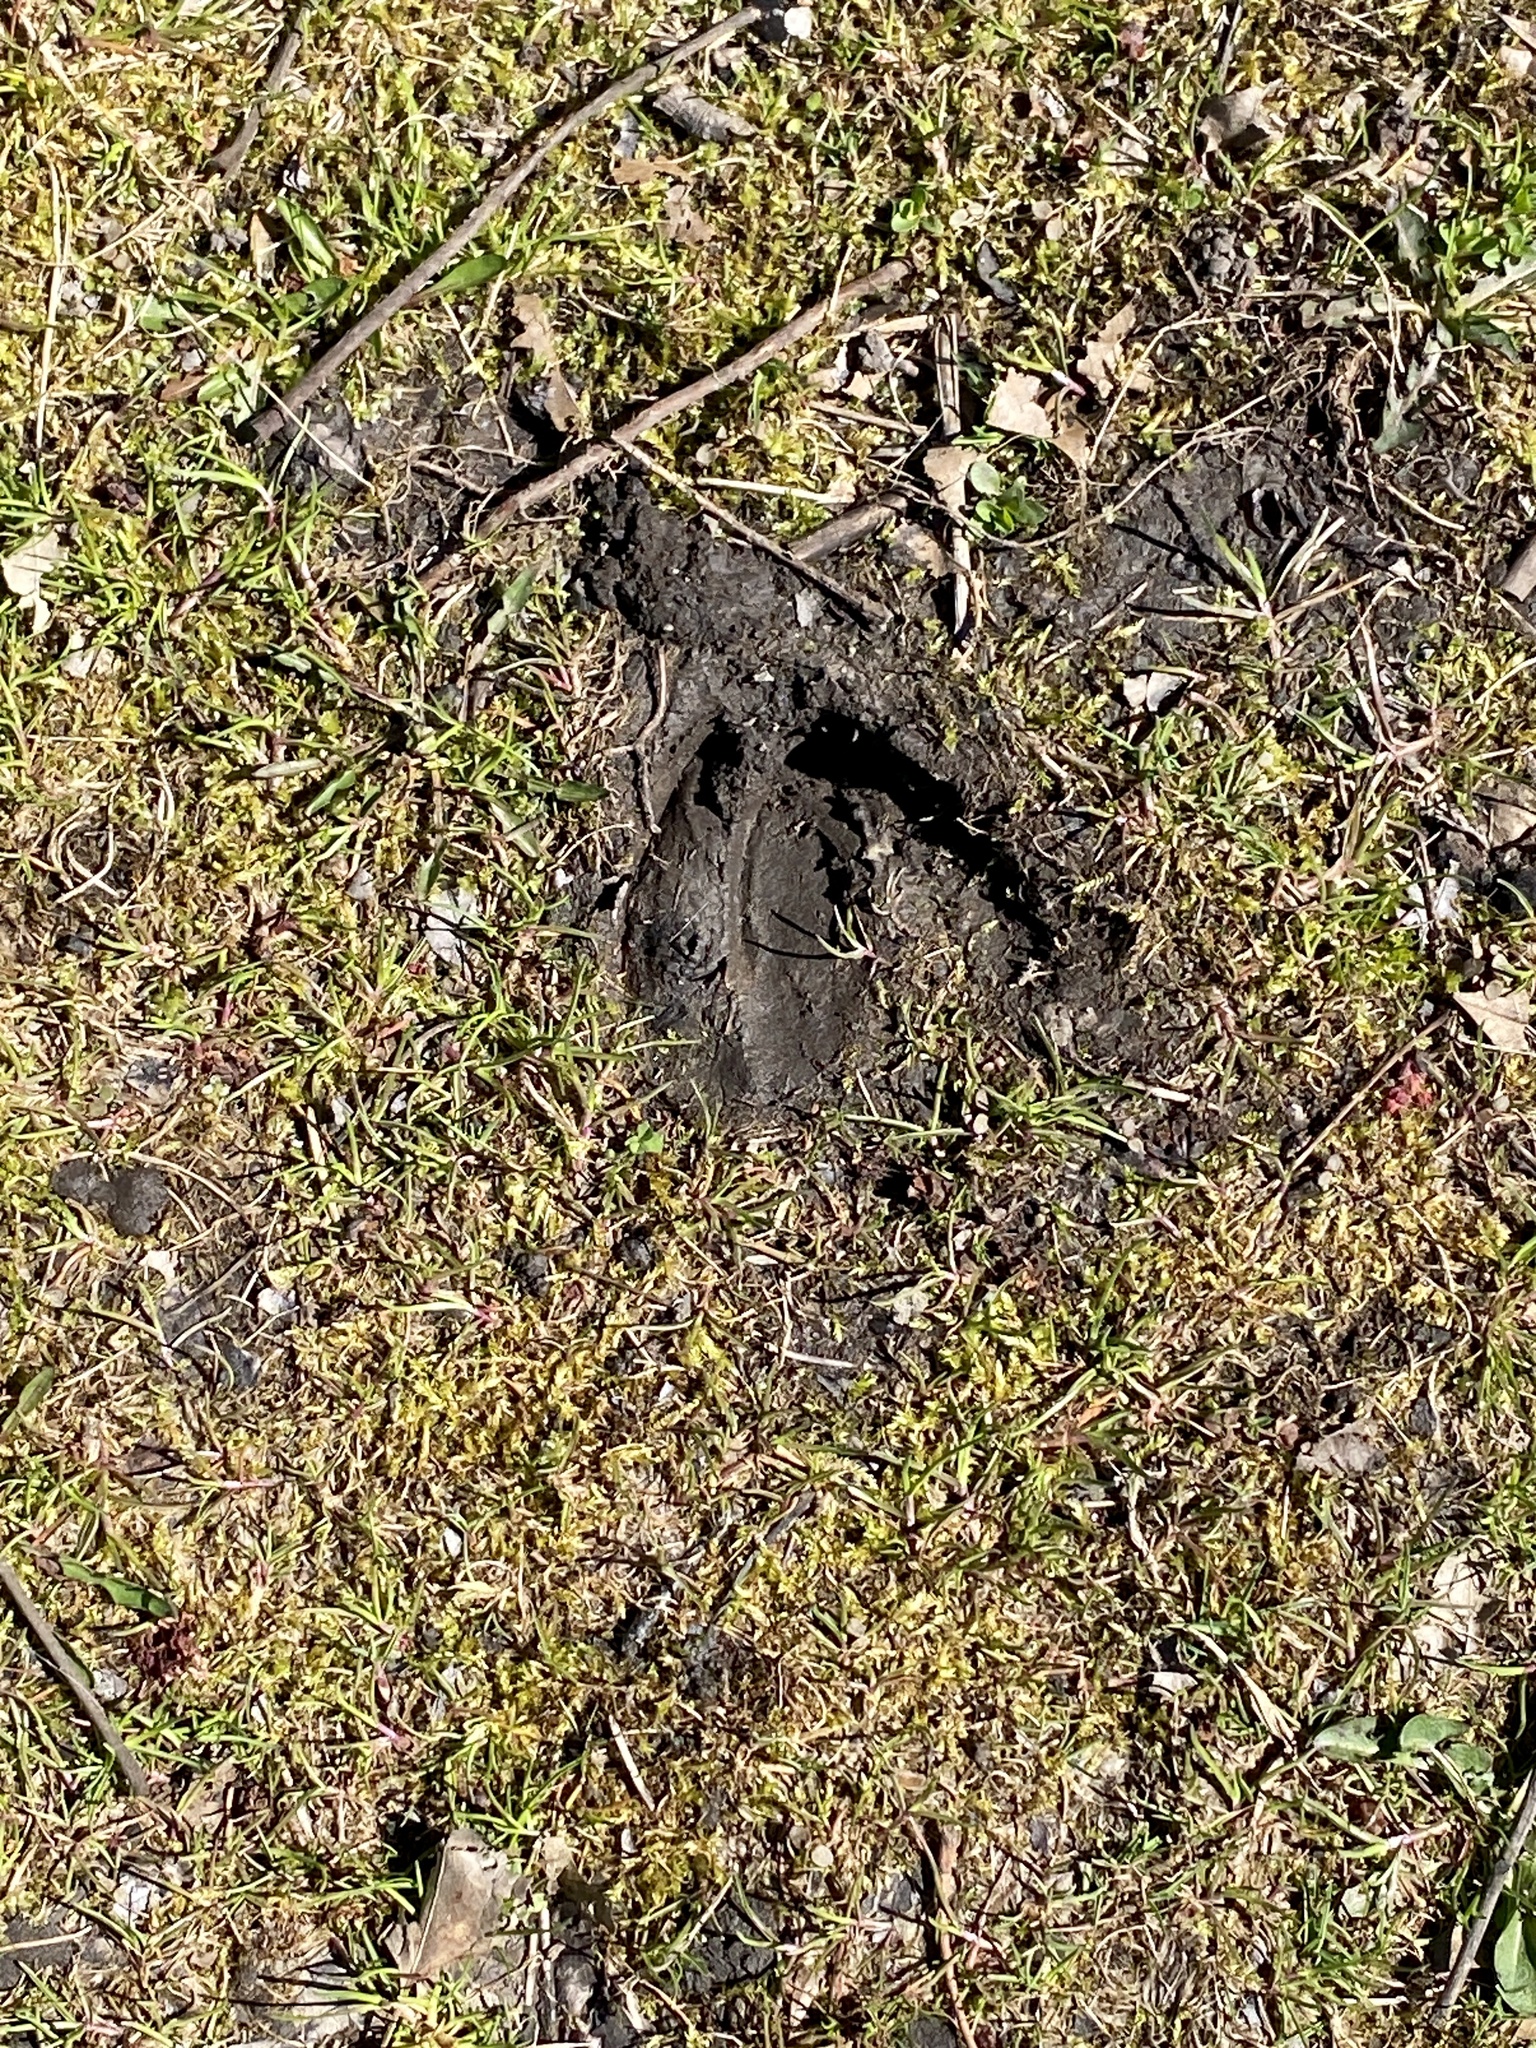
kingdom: Animalia
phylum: Chordata
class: Mammalia
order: Artiodactyla
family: Cervidae
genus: Odocoileus
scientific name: Odocoileus virginianus
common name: White-tailed deer
